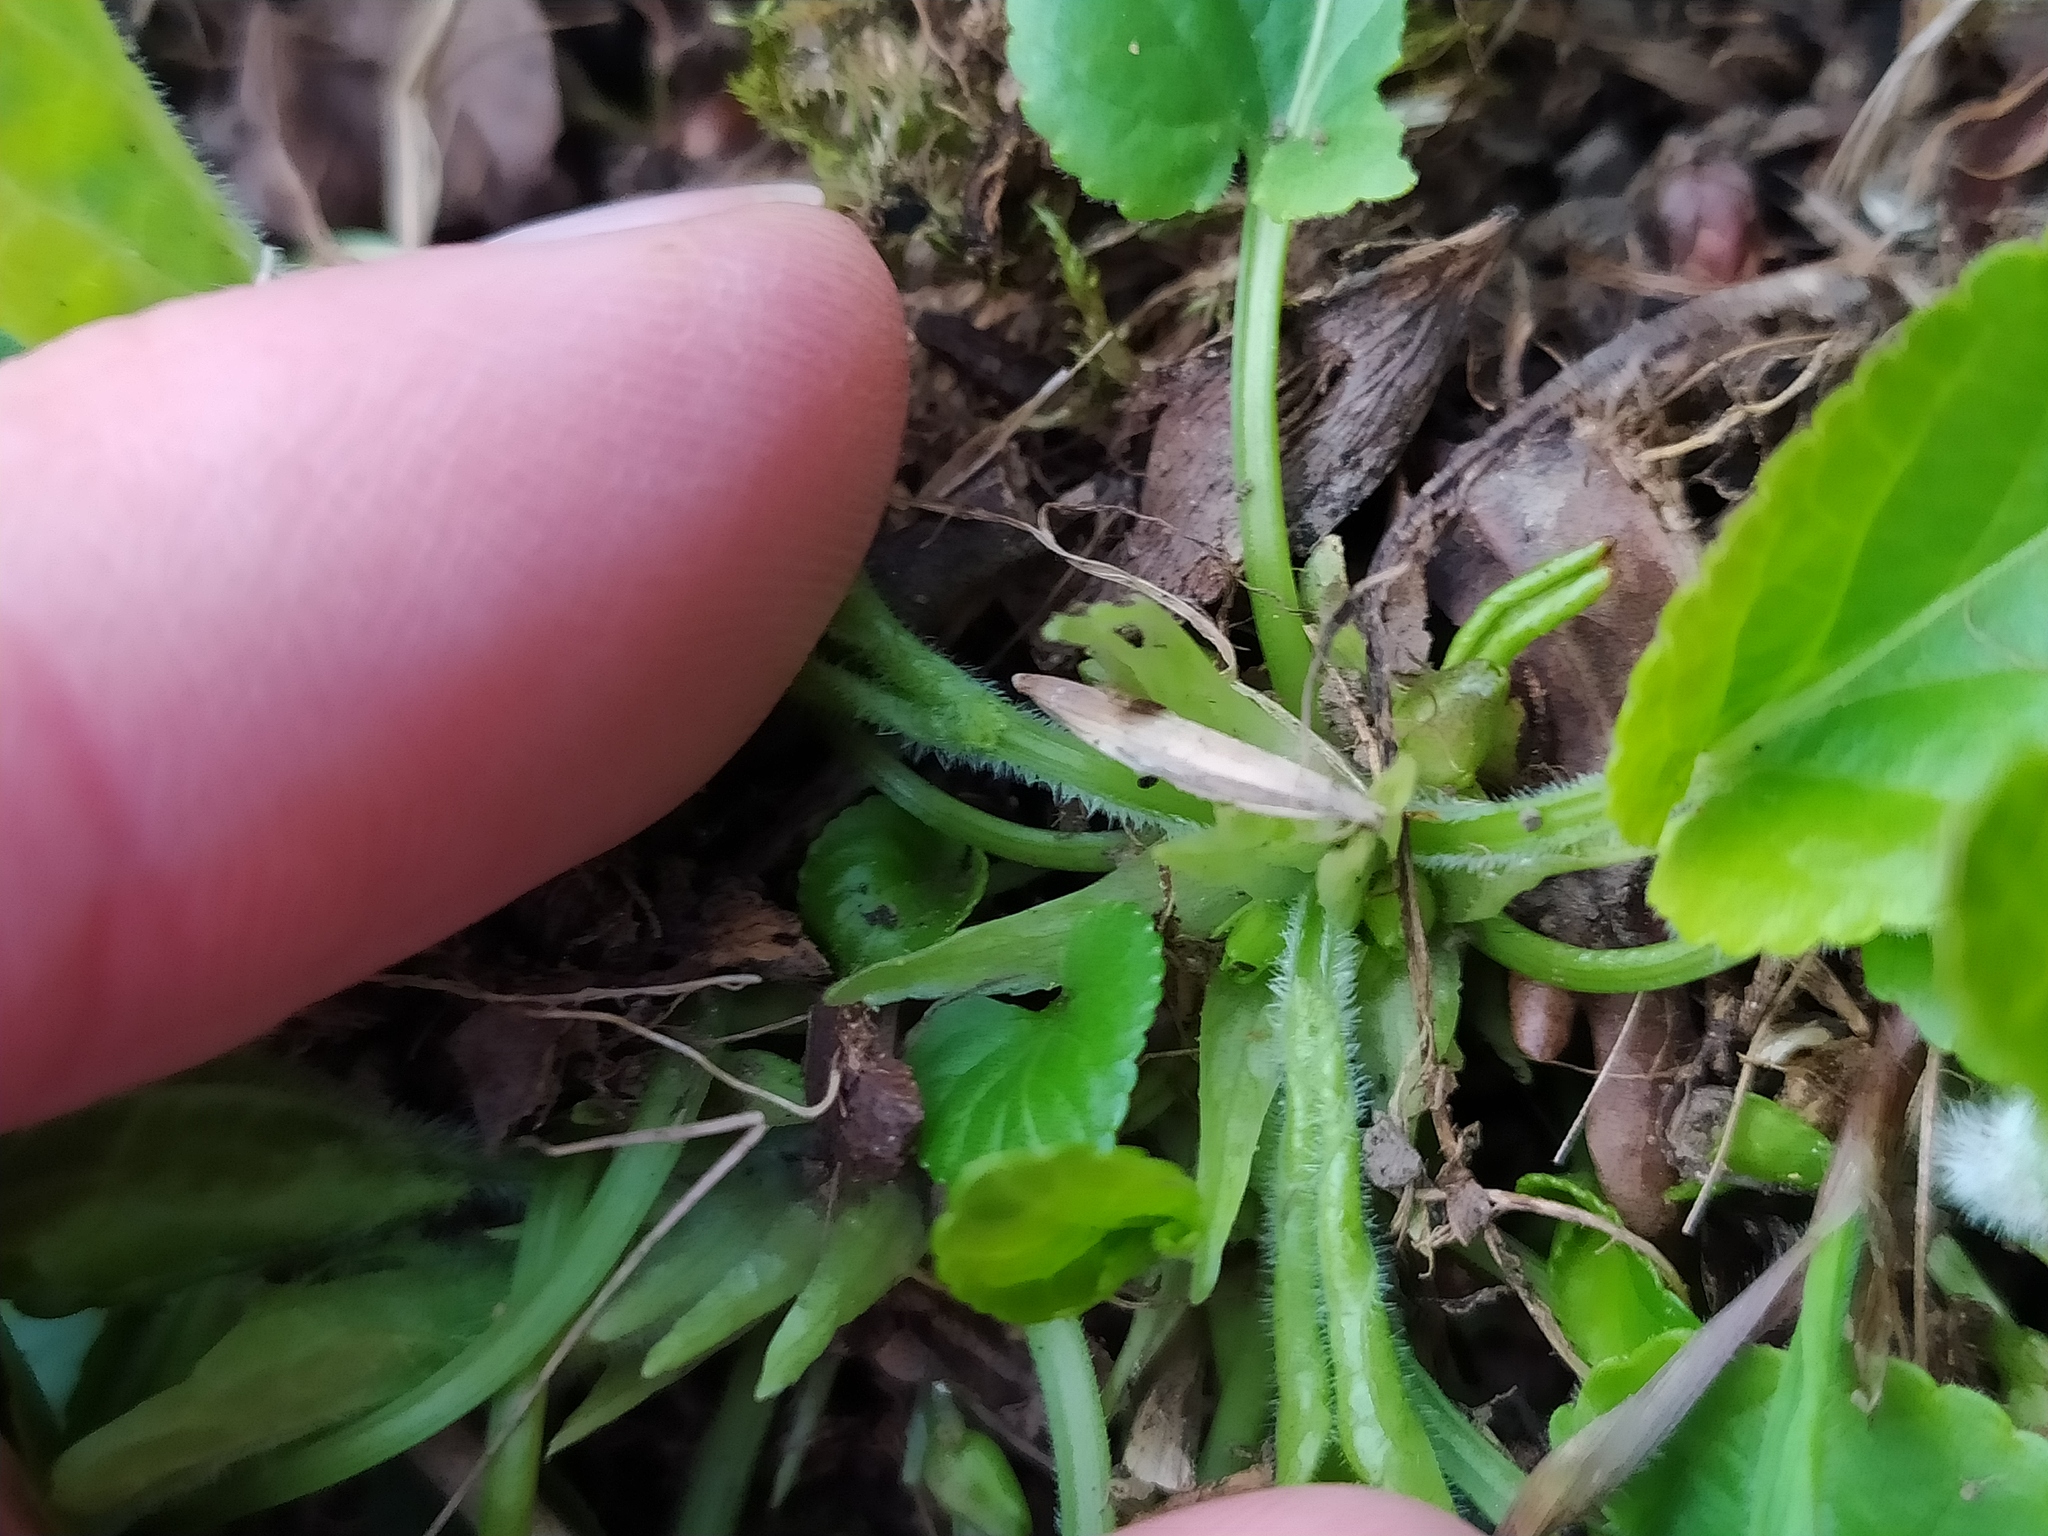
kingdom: Plantae
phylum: Tracheophyta
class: Magnoliopsida
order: Malpighiales
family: Violaceae
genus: Viola
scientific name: Viola hirta
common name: Hairy violet
